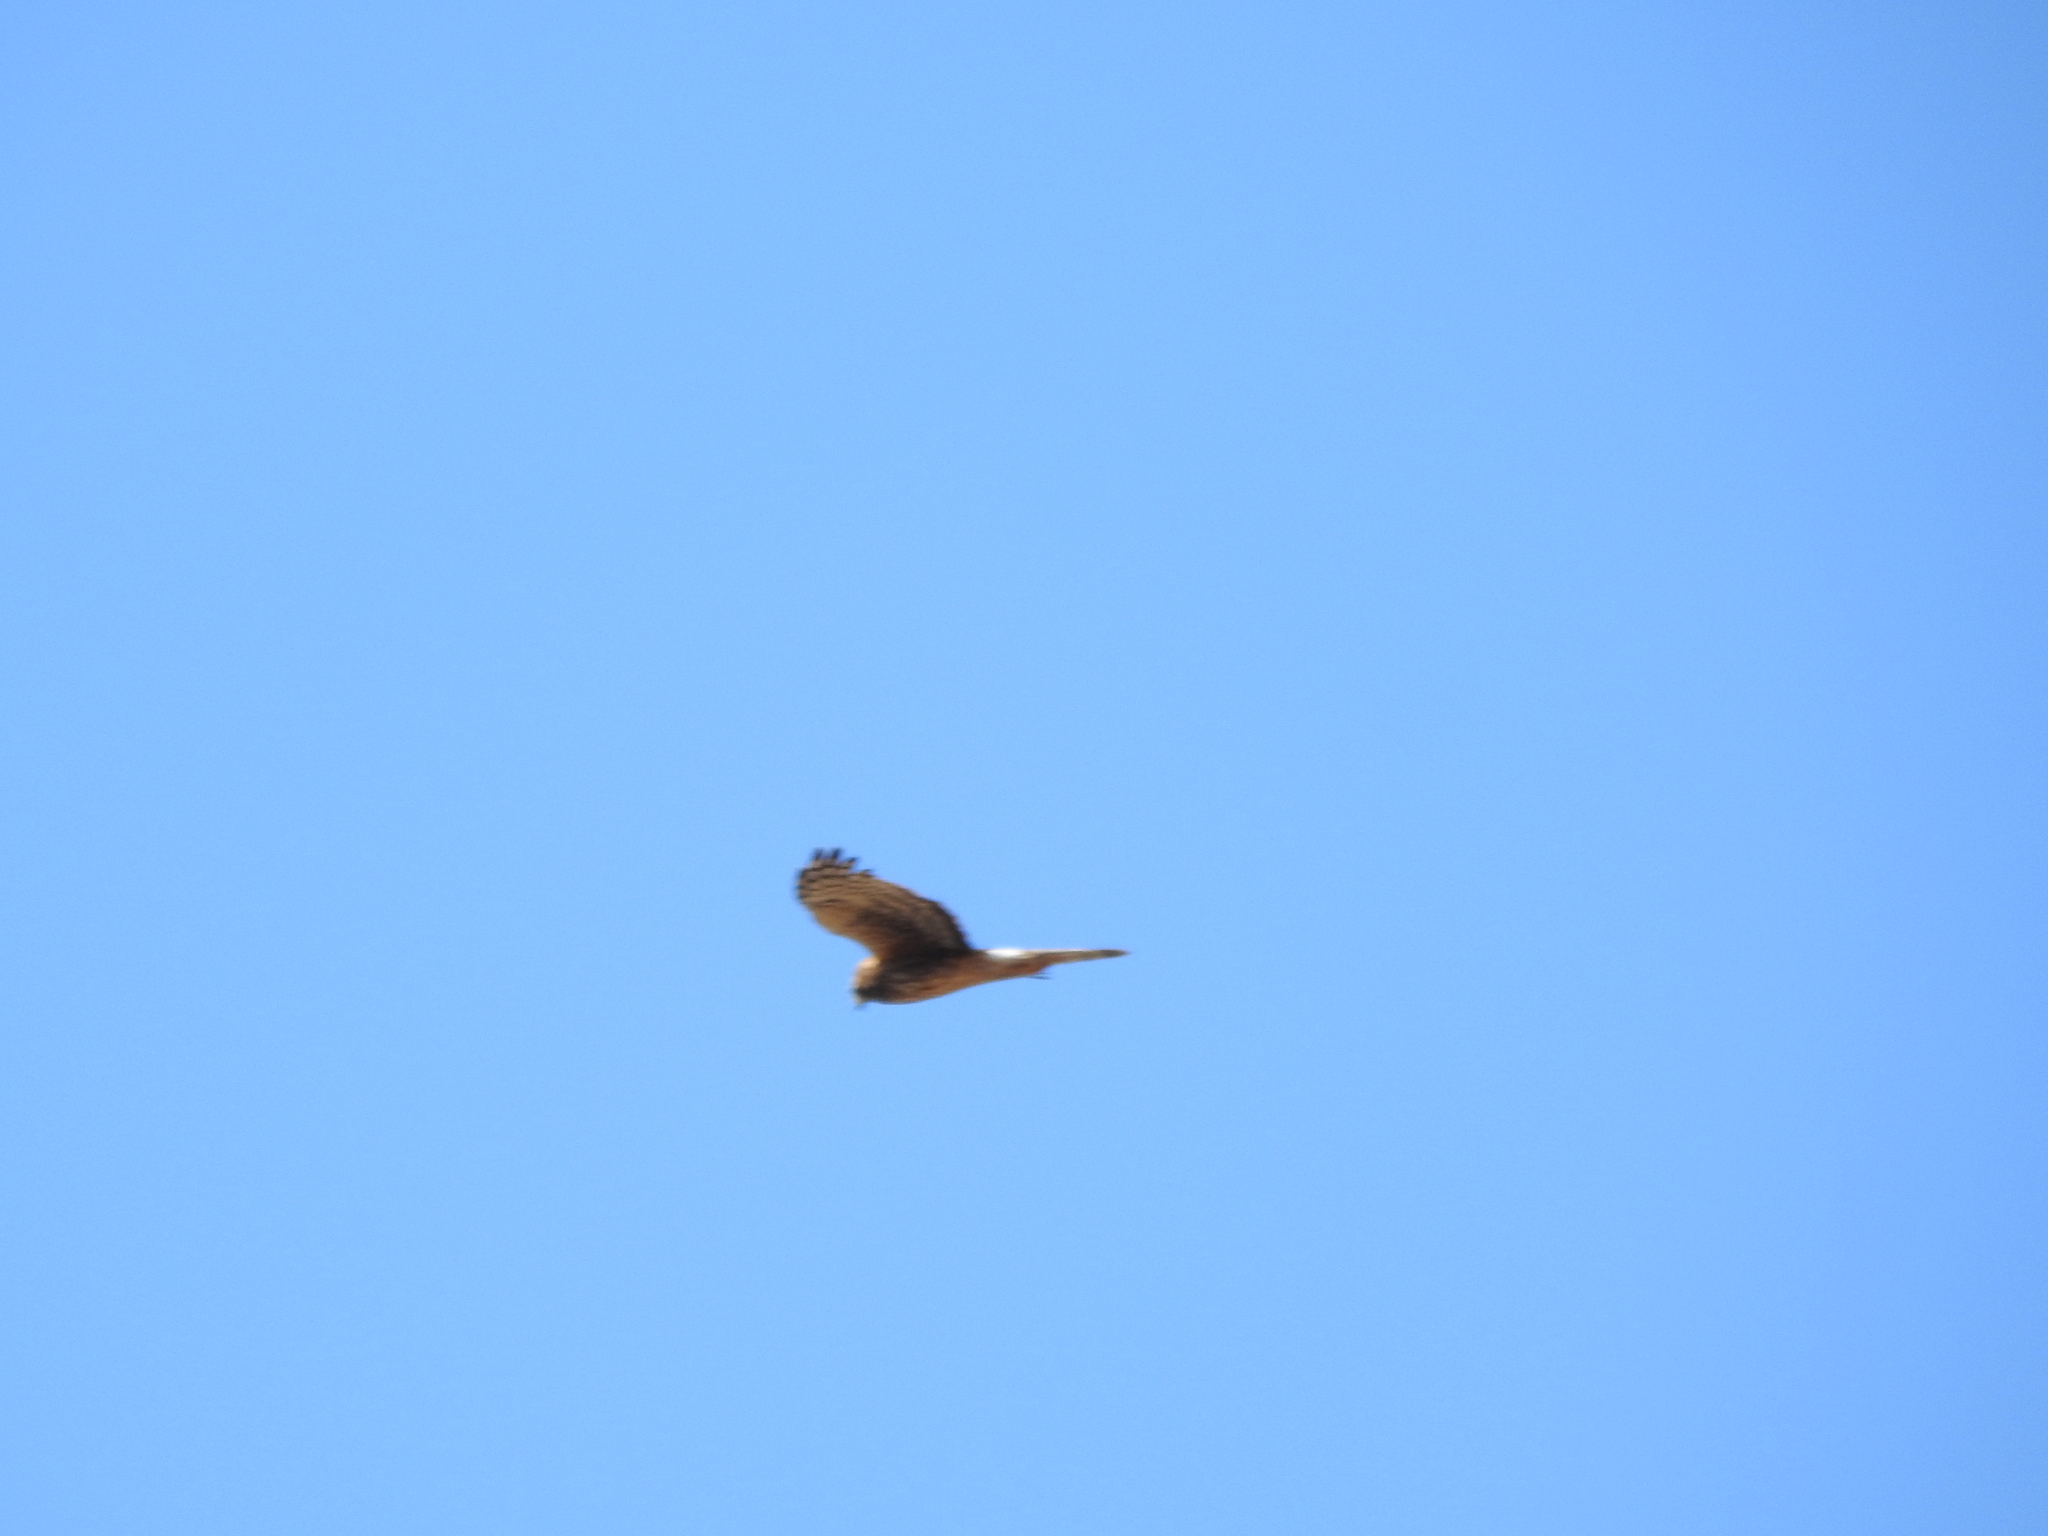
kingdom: Animalia
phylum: Chordata
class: Aves
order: Accipitriformes
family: Accipitridae
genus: Circus
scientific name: Circus cyaneus
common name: Hen harrier
